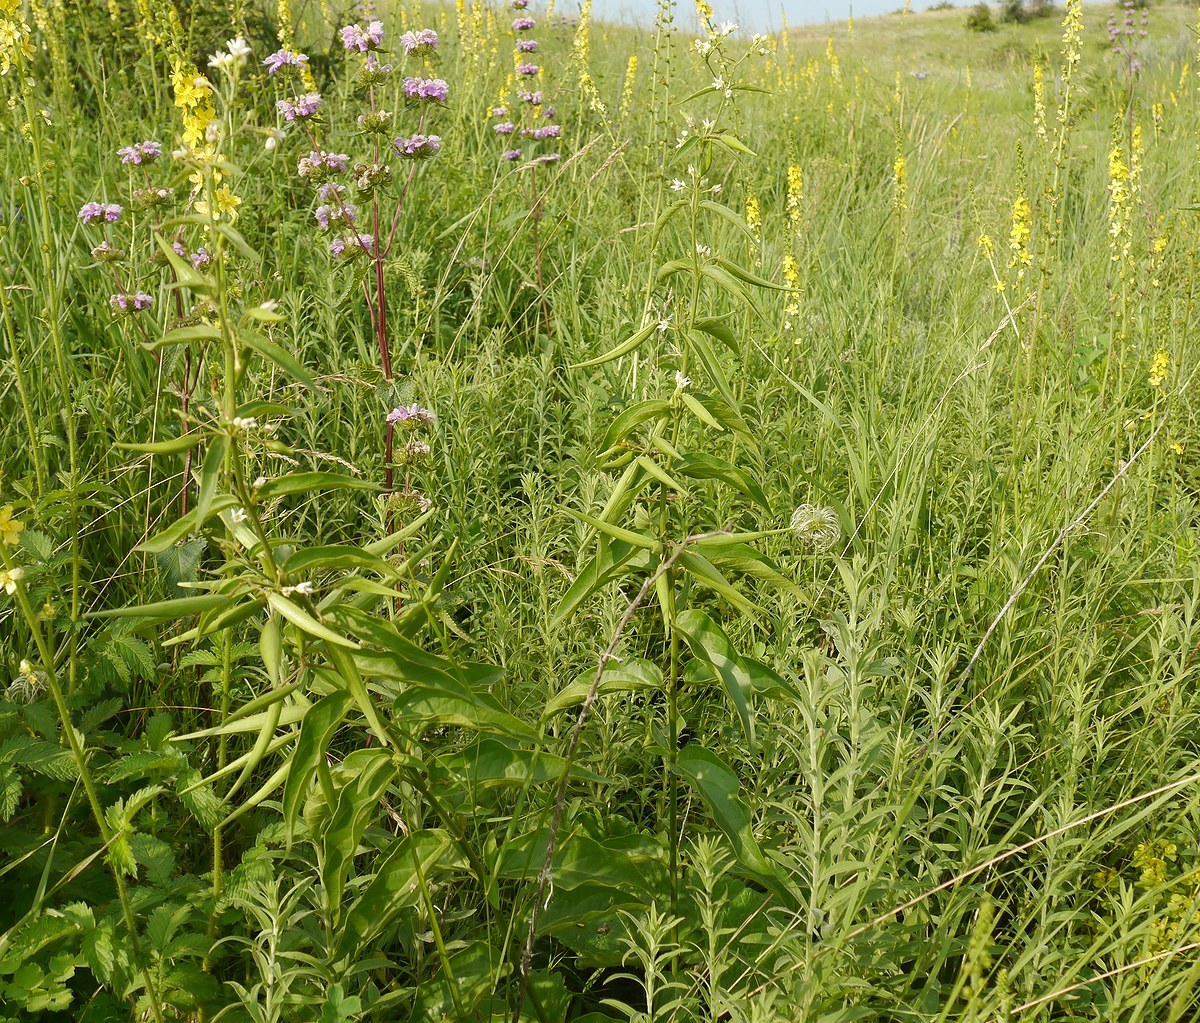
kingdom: Plantae
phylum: Tracheophyta
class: Magnoliopsida
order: Gentianales
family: Apocynaceae
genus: Vincetoxicum
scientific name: Vincetoxicum hirundinaria
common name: White swallowwort
